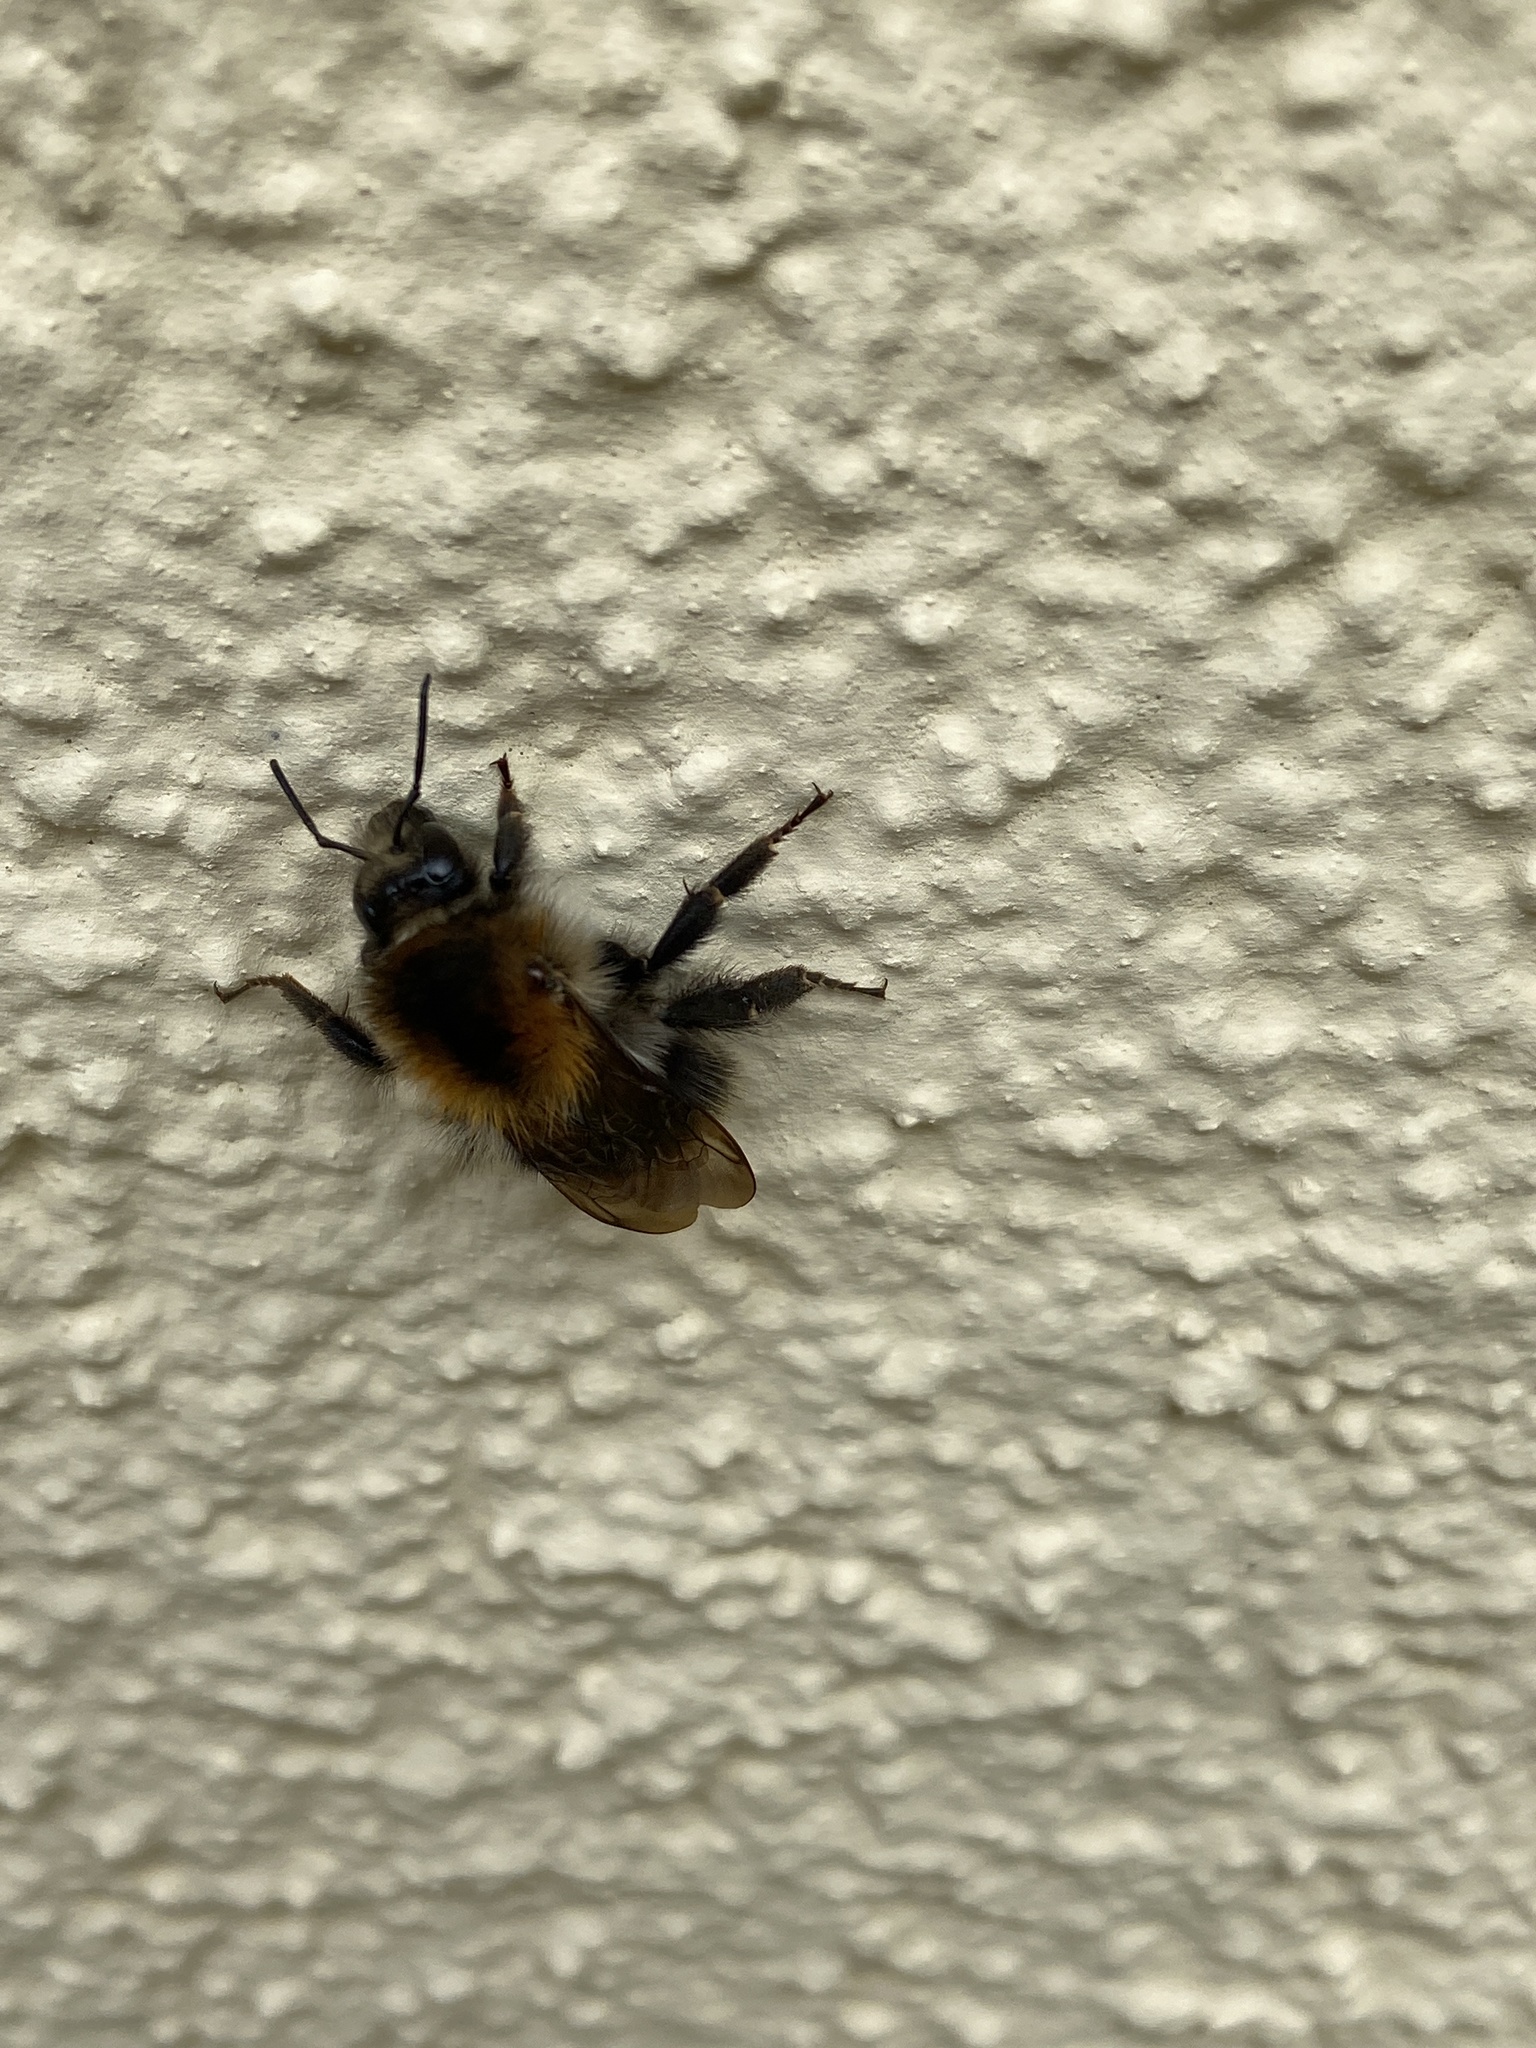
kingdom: Animalia
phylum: Arthropoda
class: Insecta
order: Hymenoptera
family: Apidae
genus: Bombus
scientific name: Bombus pascuorum
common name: Common carder bee
